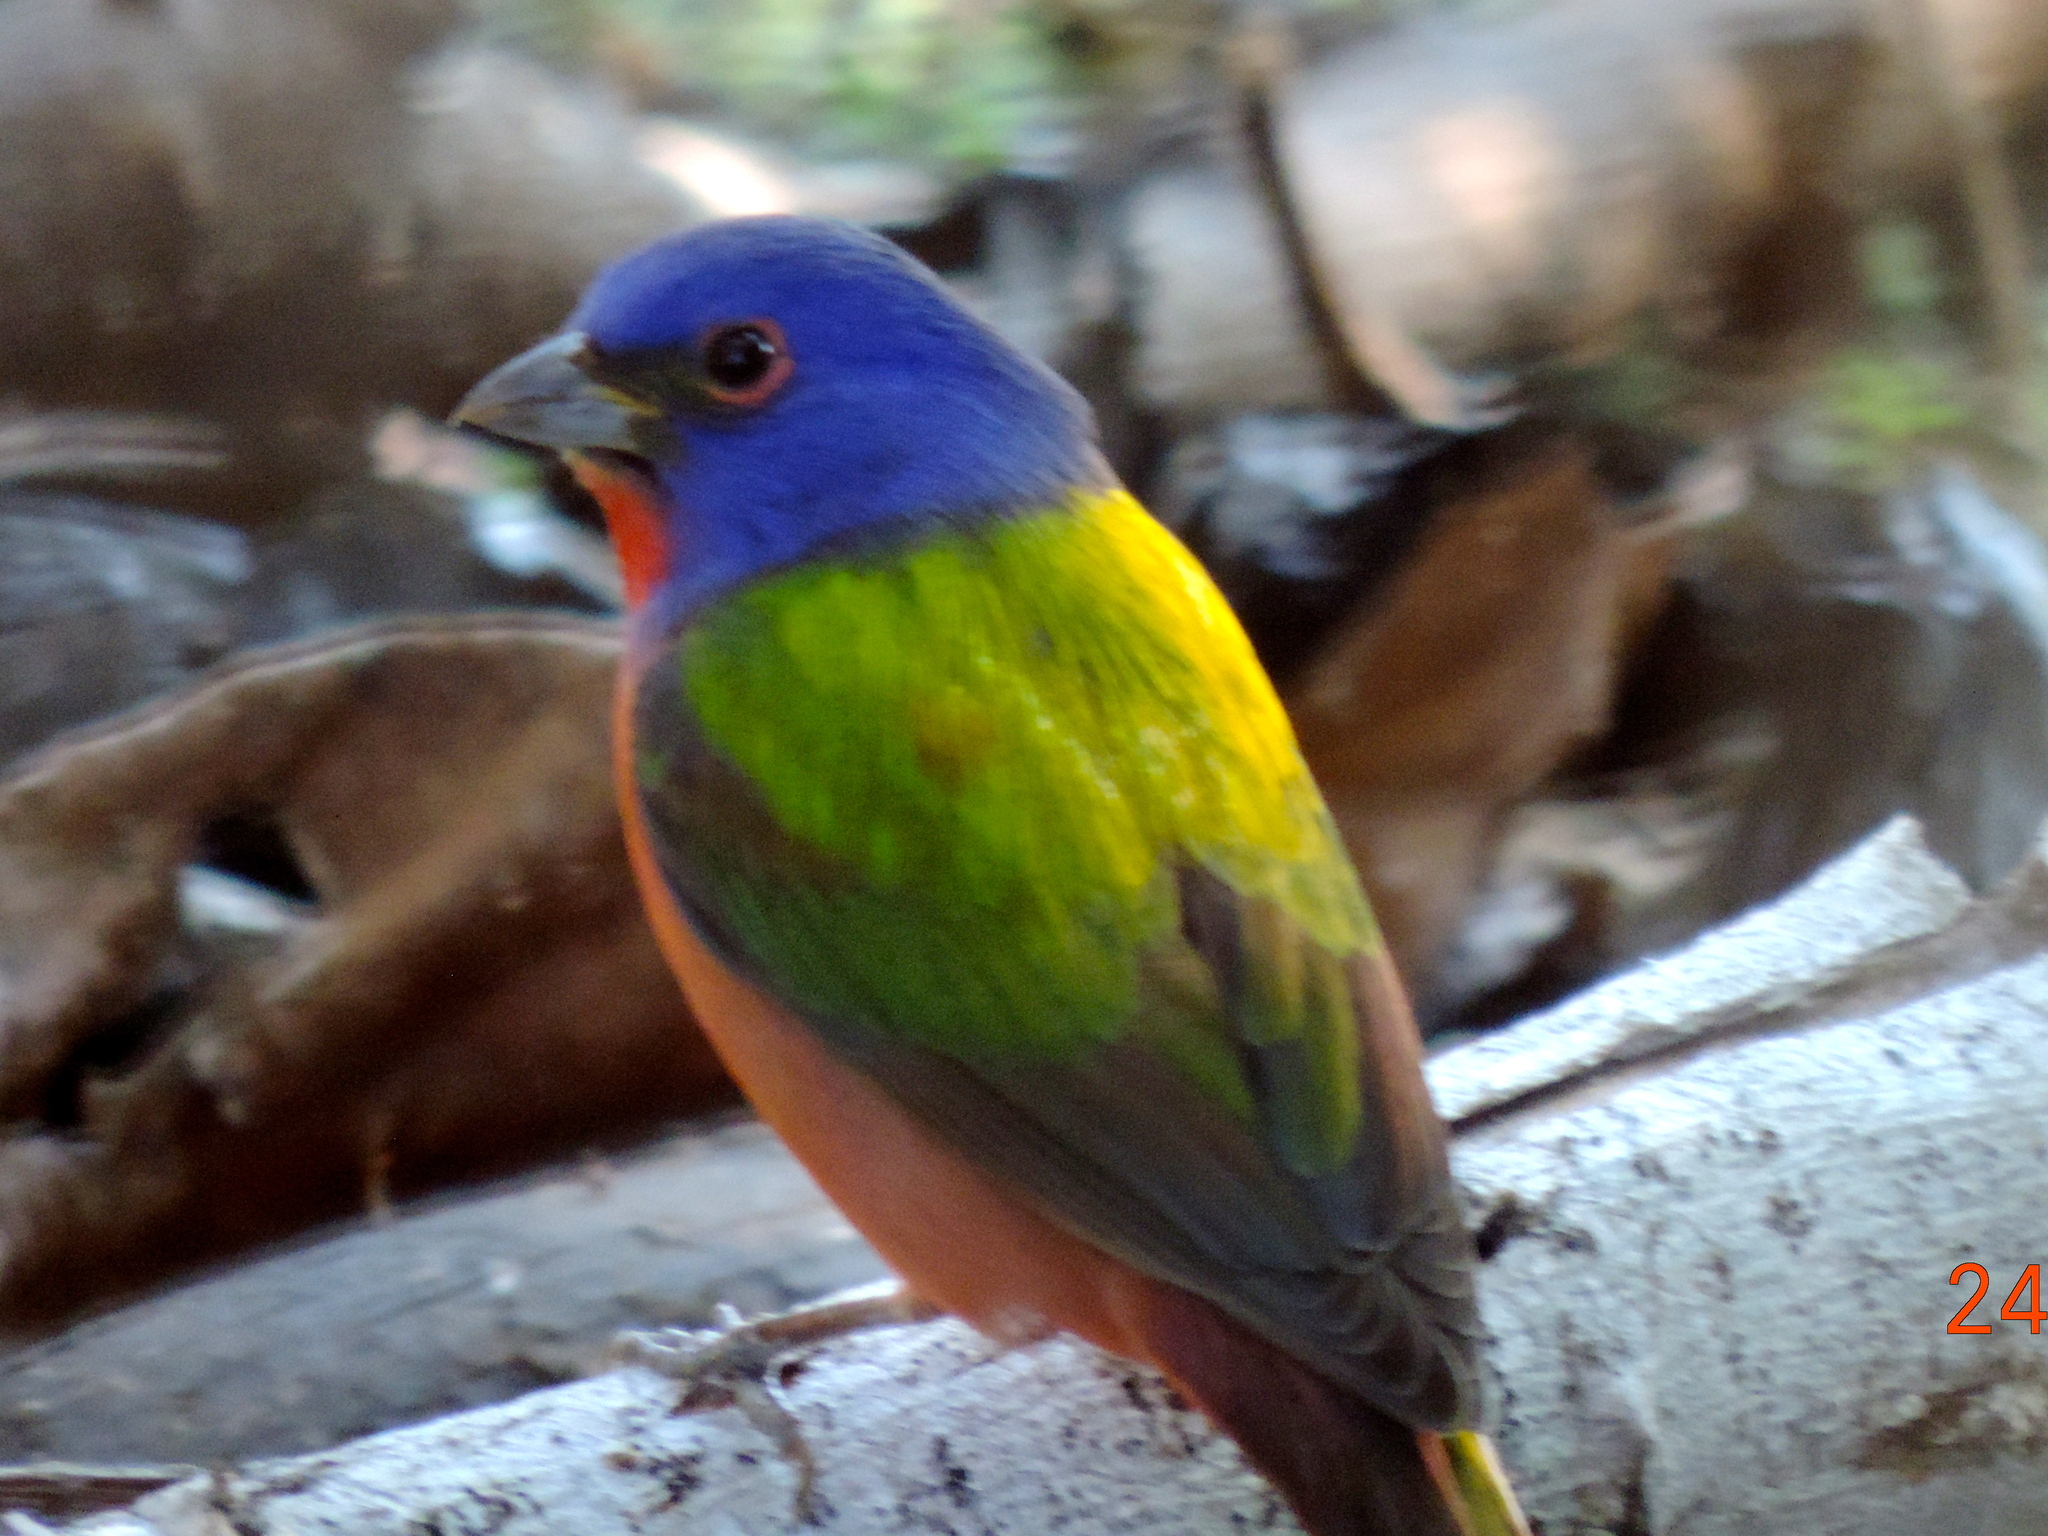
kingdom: Animalia
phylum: Chordata
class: Aves
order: Passeriformes
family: Cardinalidae
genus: Passerina
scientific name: Passerina ciris
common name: Painted bunting
